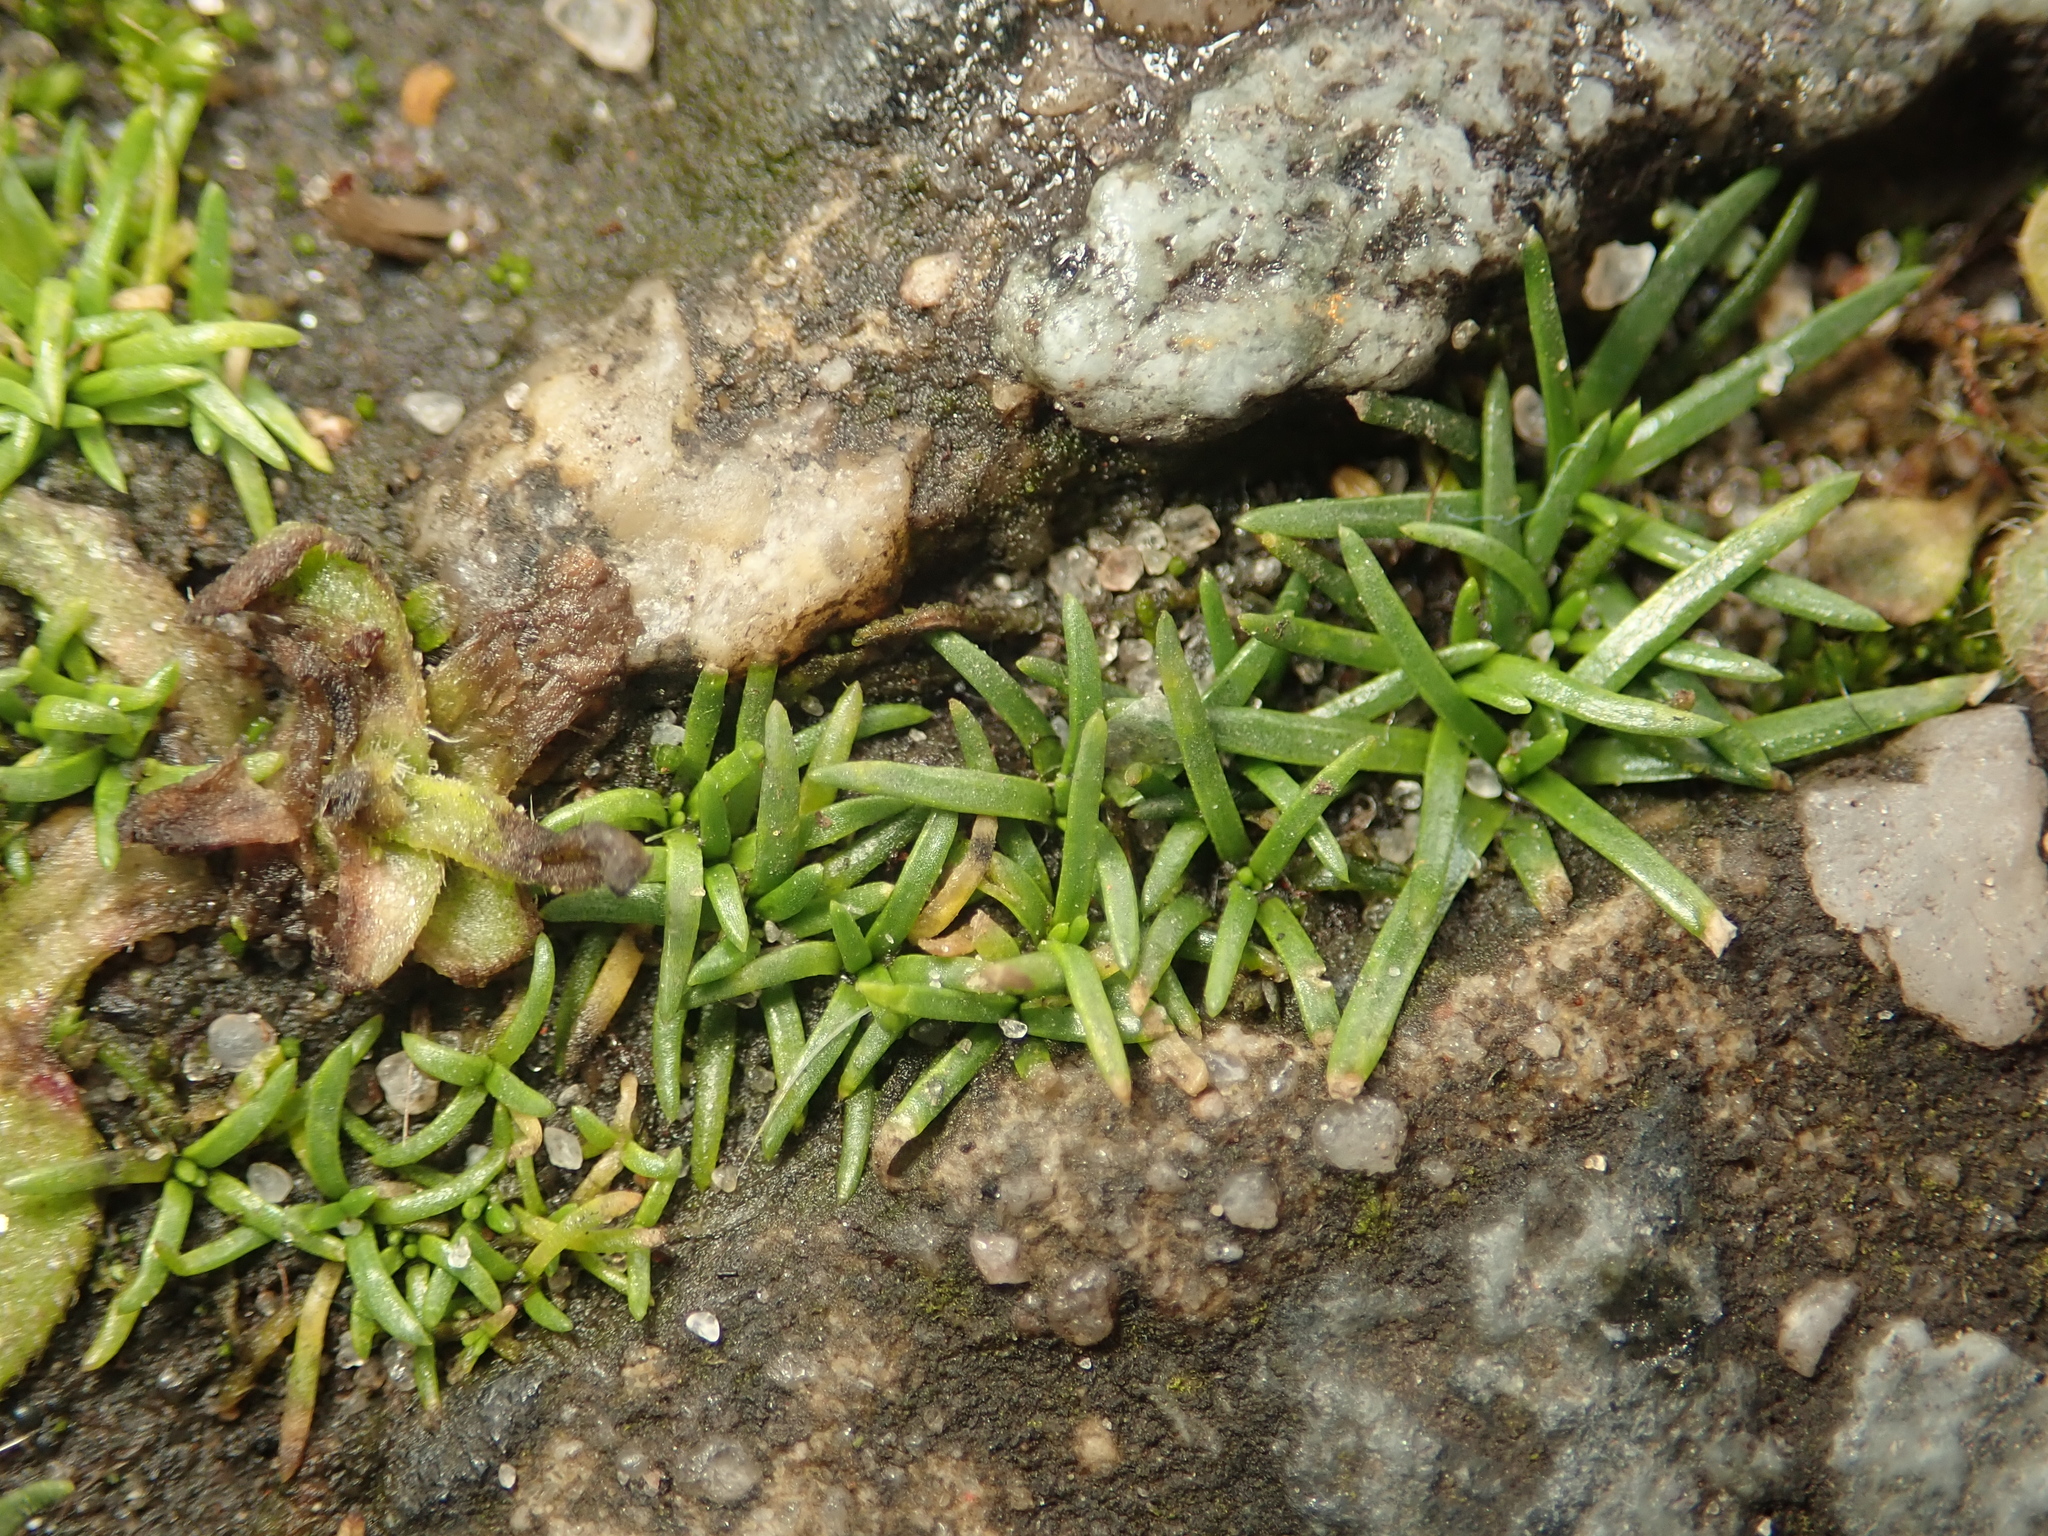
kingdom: Plantae
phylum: Tracheophyta
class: Magnoliopsida
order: Caryophyllales
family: Caryophyllaceae
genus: Sagina
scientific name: Sagina procumbens
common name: Procumbent pearlwort
